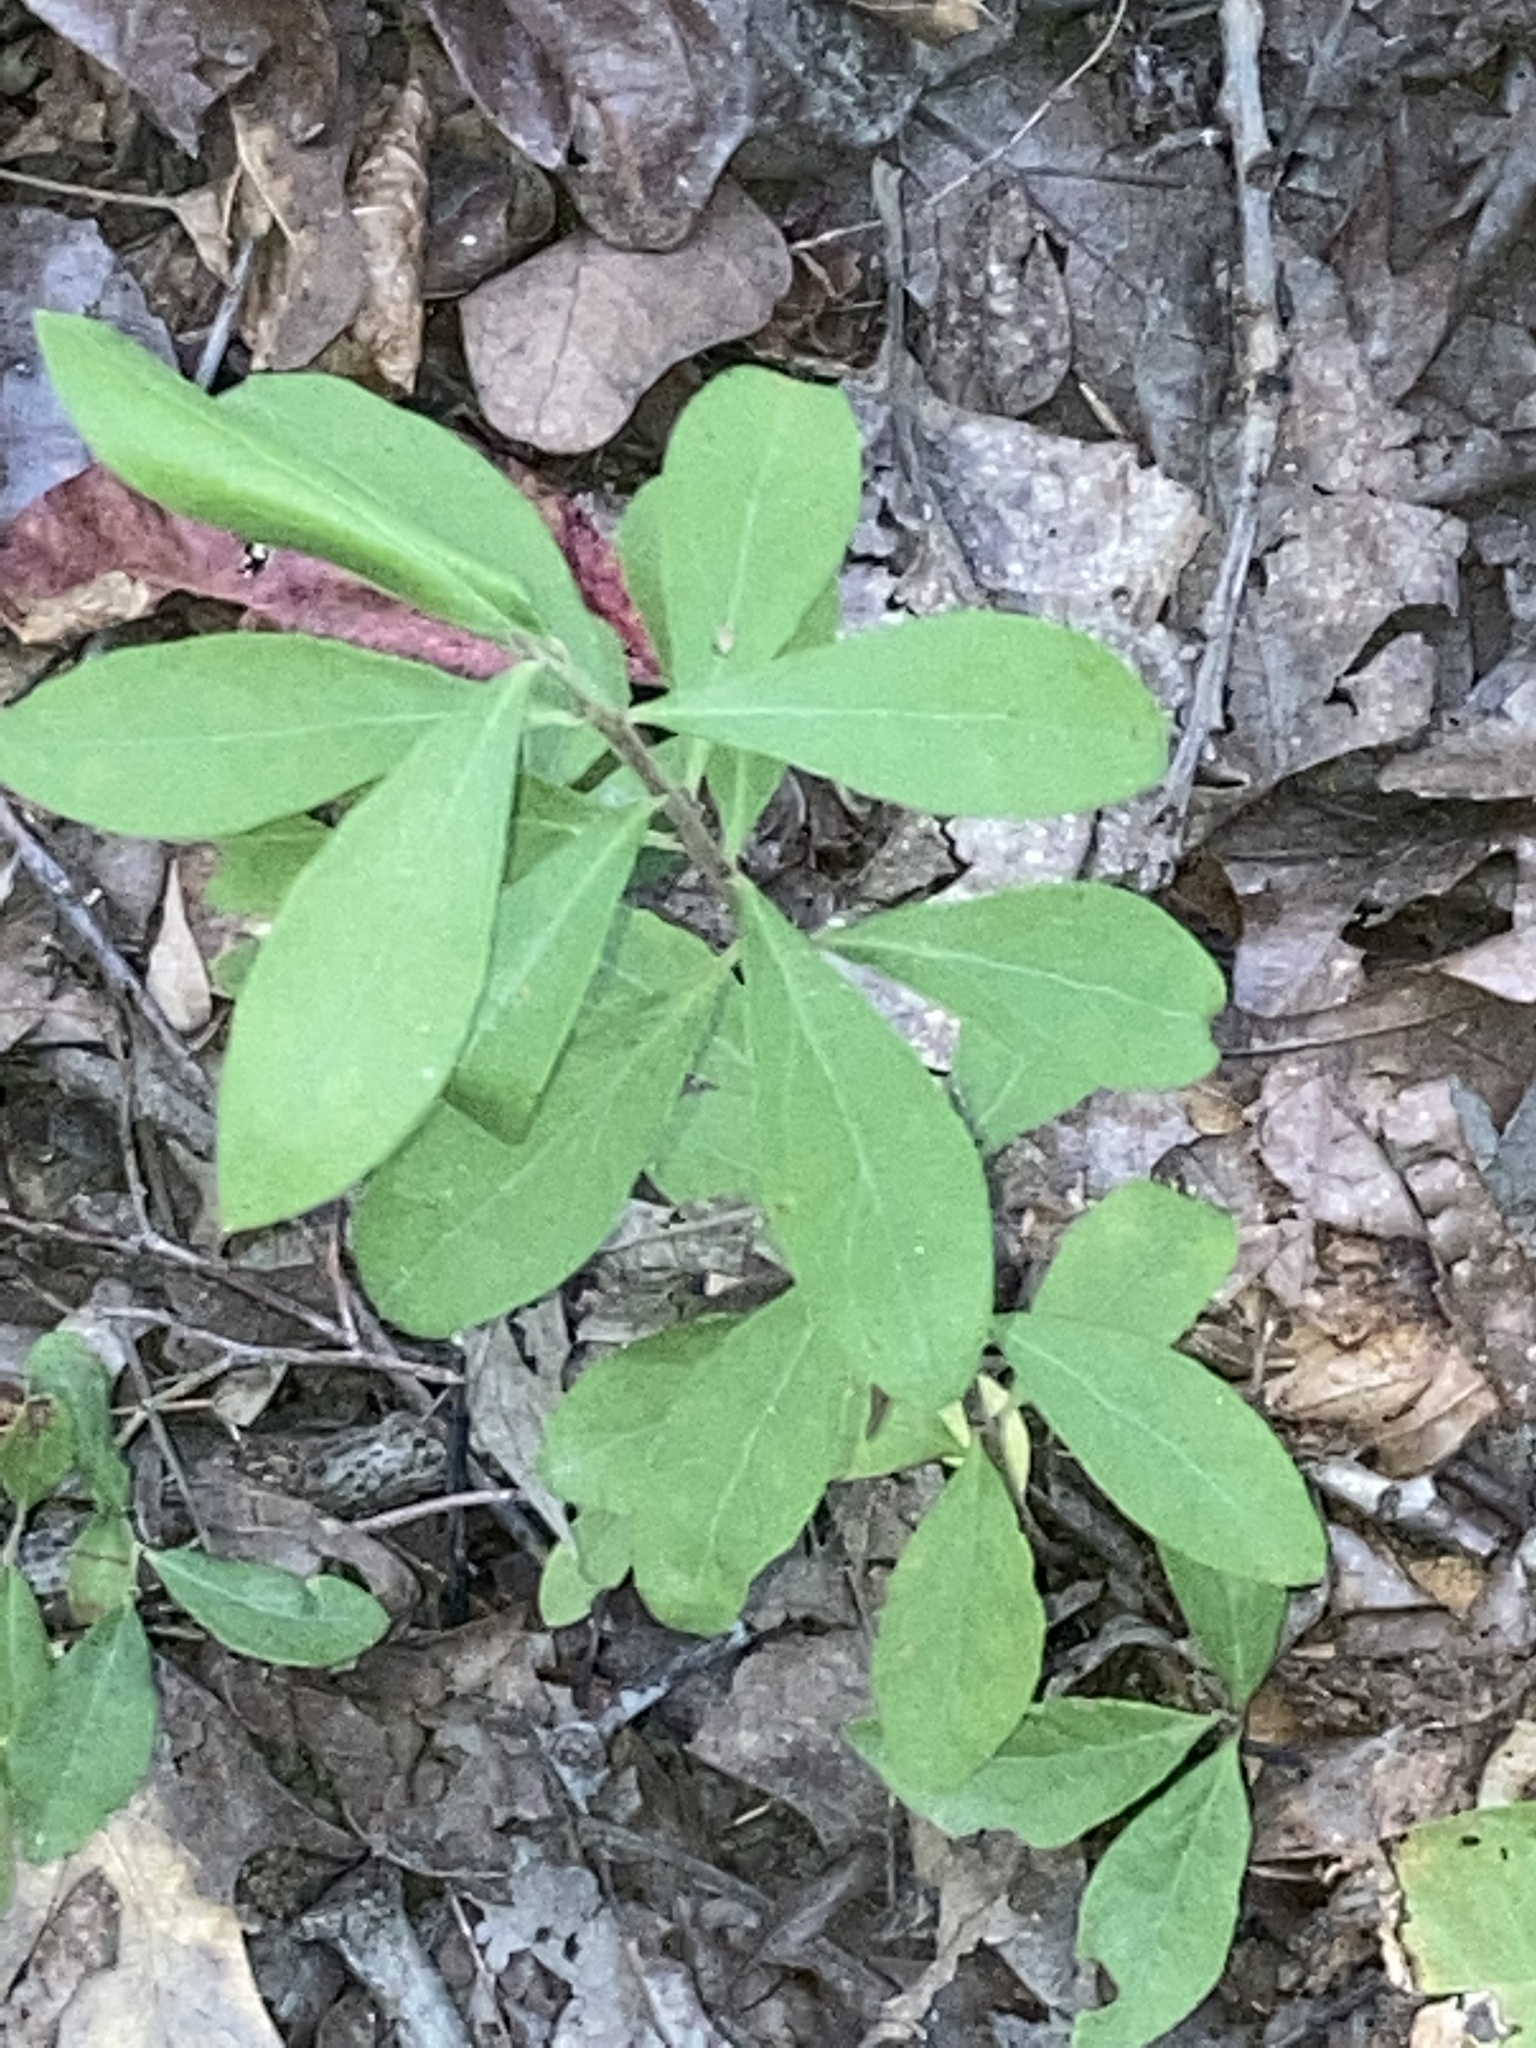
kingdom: Plantae
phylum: Tracheophyta
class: Magnoliopsida
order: Malpighiales
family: Hypericaceae
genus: Triadenum
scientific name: Triadenum walteri
